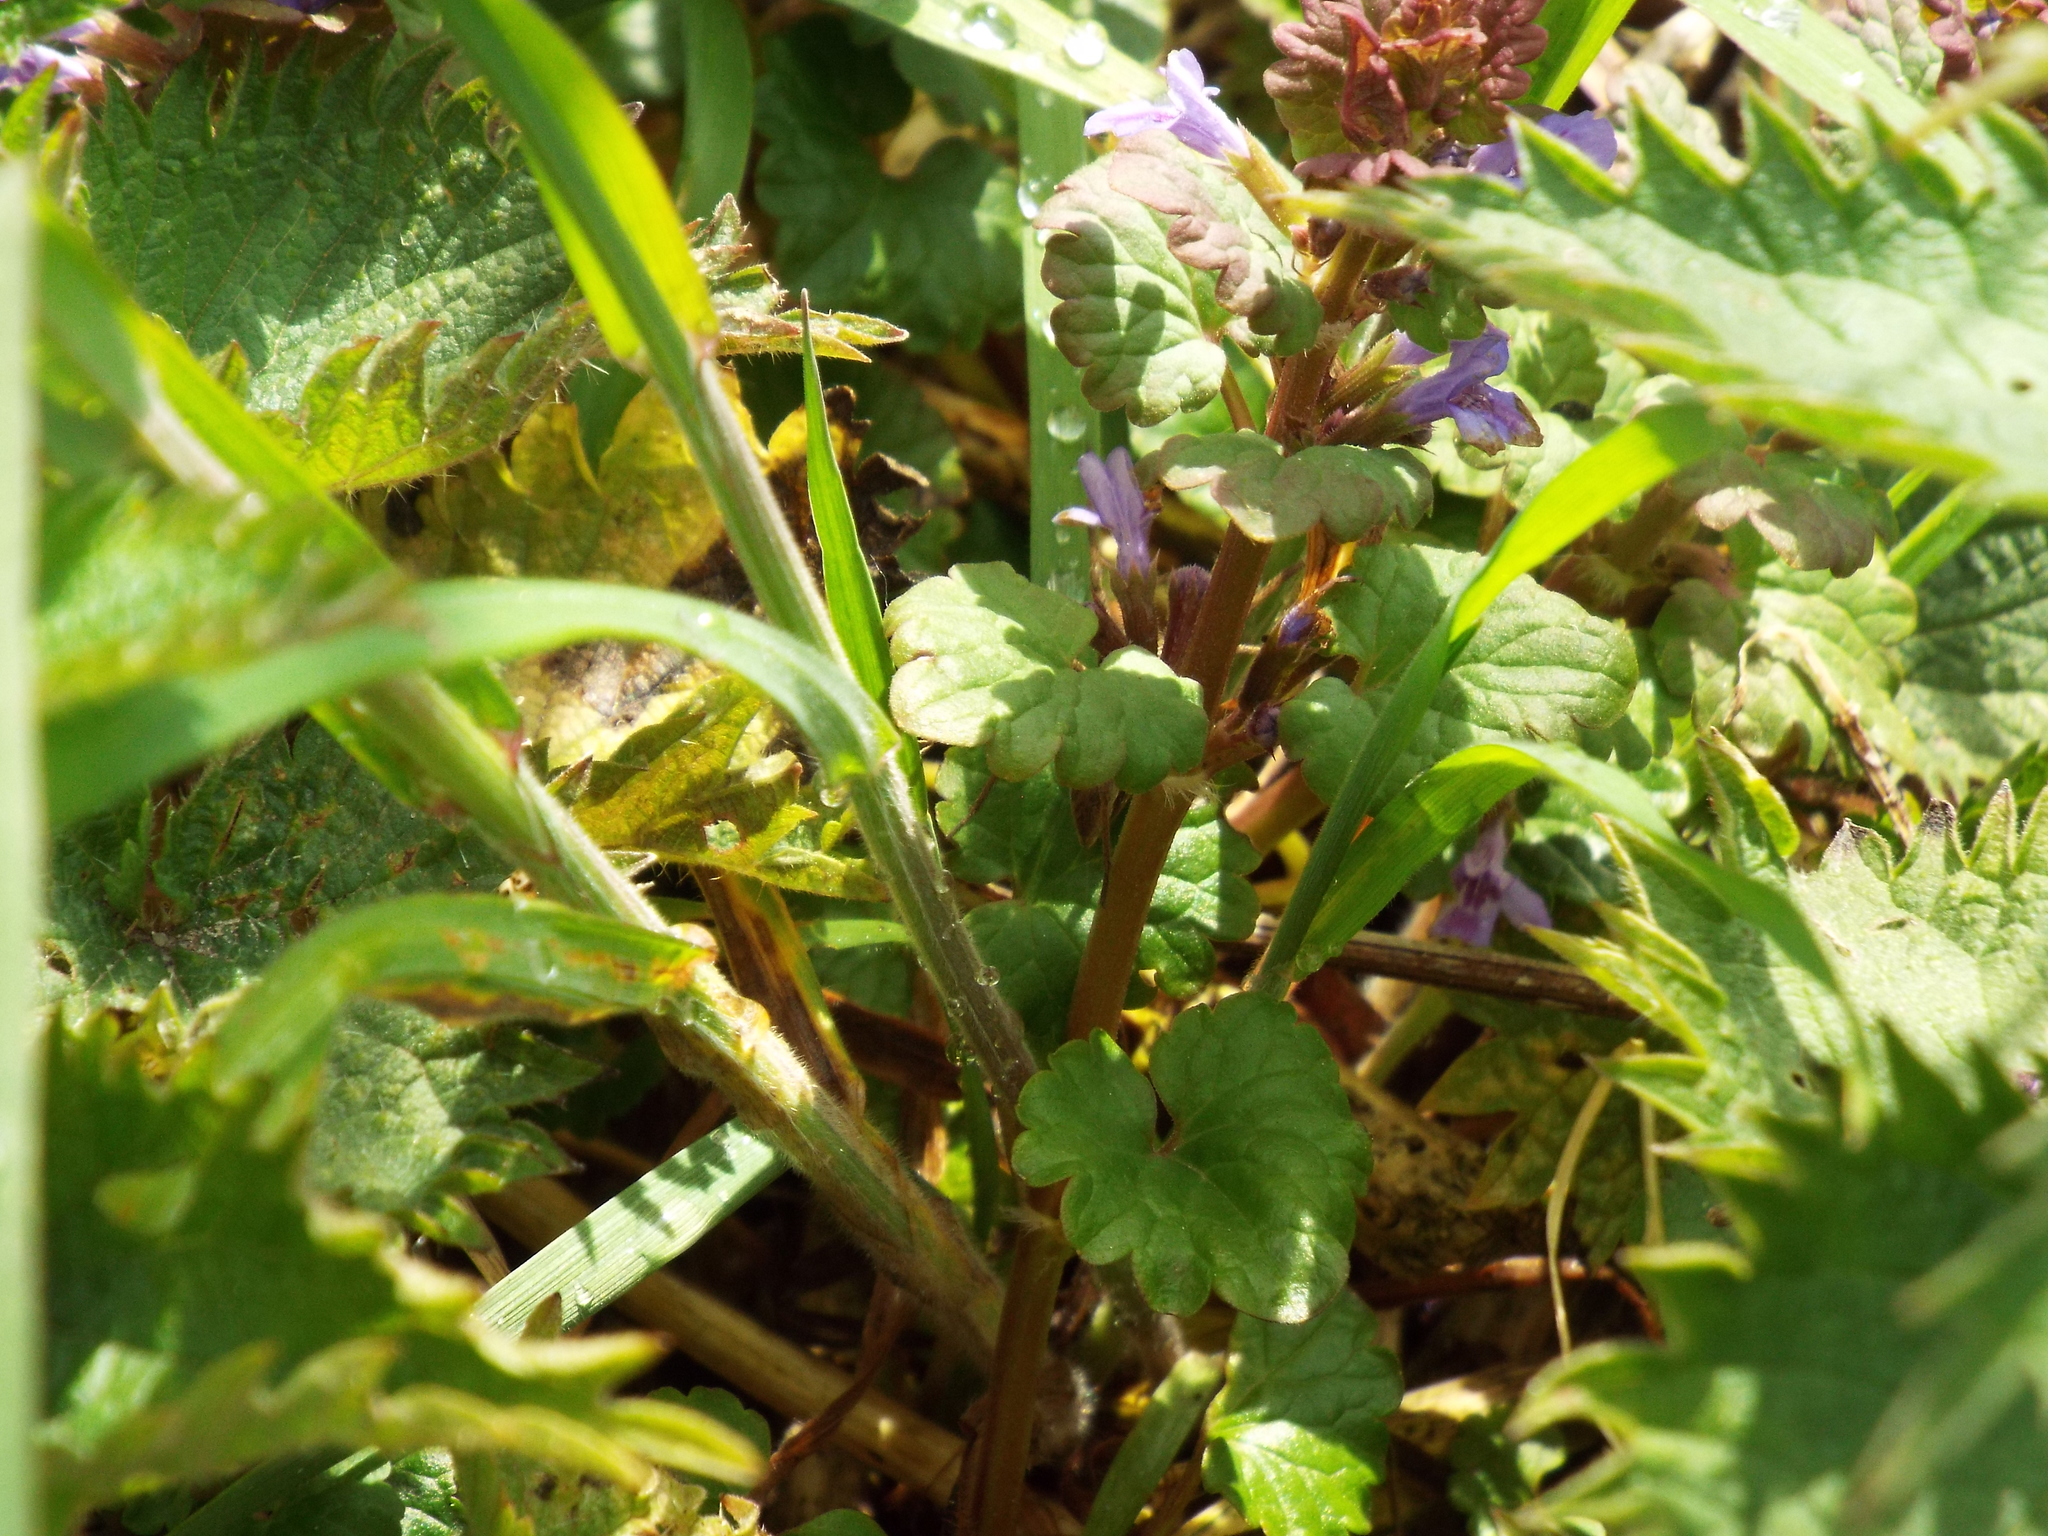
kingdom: Plantae
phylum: Tracheophyta
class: Magnoliopsida
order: Lamiales
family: Lamiaceae
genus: Glechoma
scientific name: Glechoma hederacea
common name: Ground ivy
